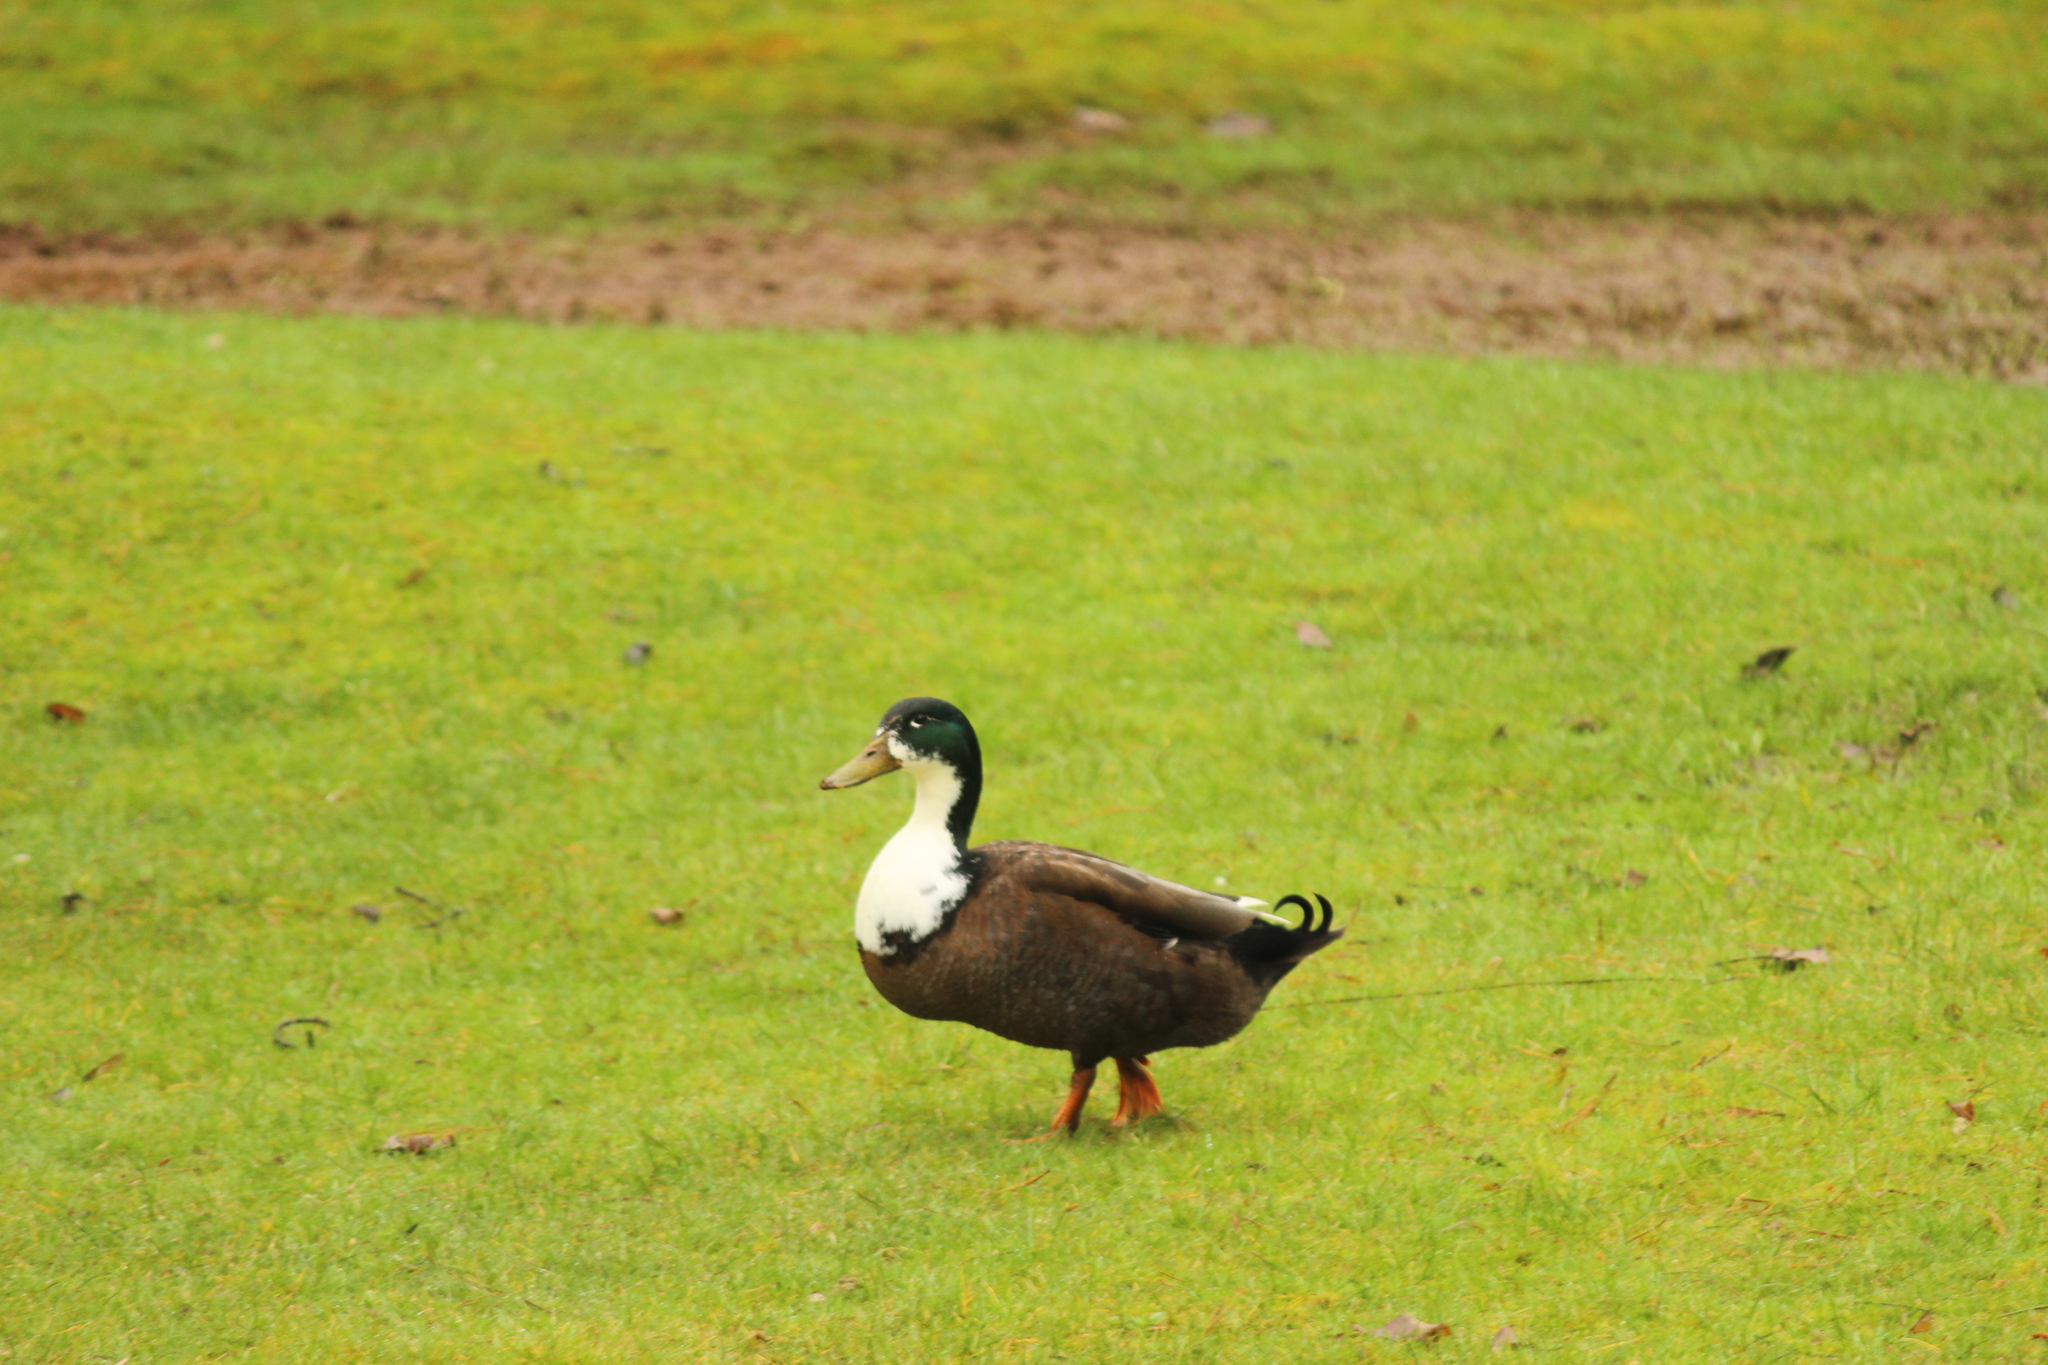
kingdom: Animalia
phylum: Chordata
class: Aves
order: Anseriformes
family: Anatidae
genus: Anas
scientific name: Anas platyrhynchos
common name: Mallard
